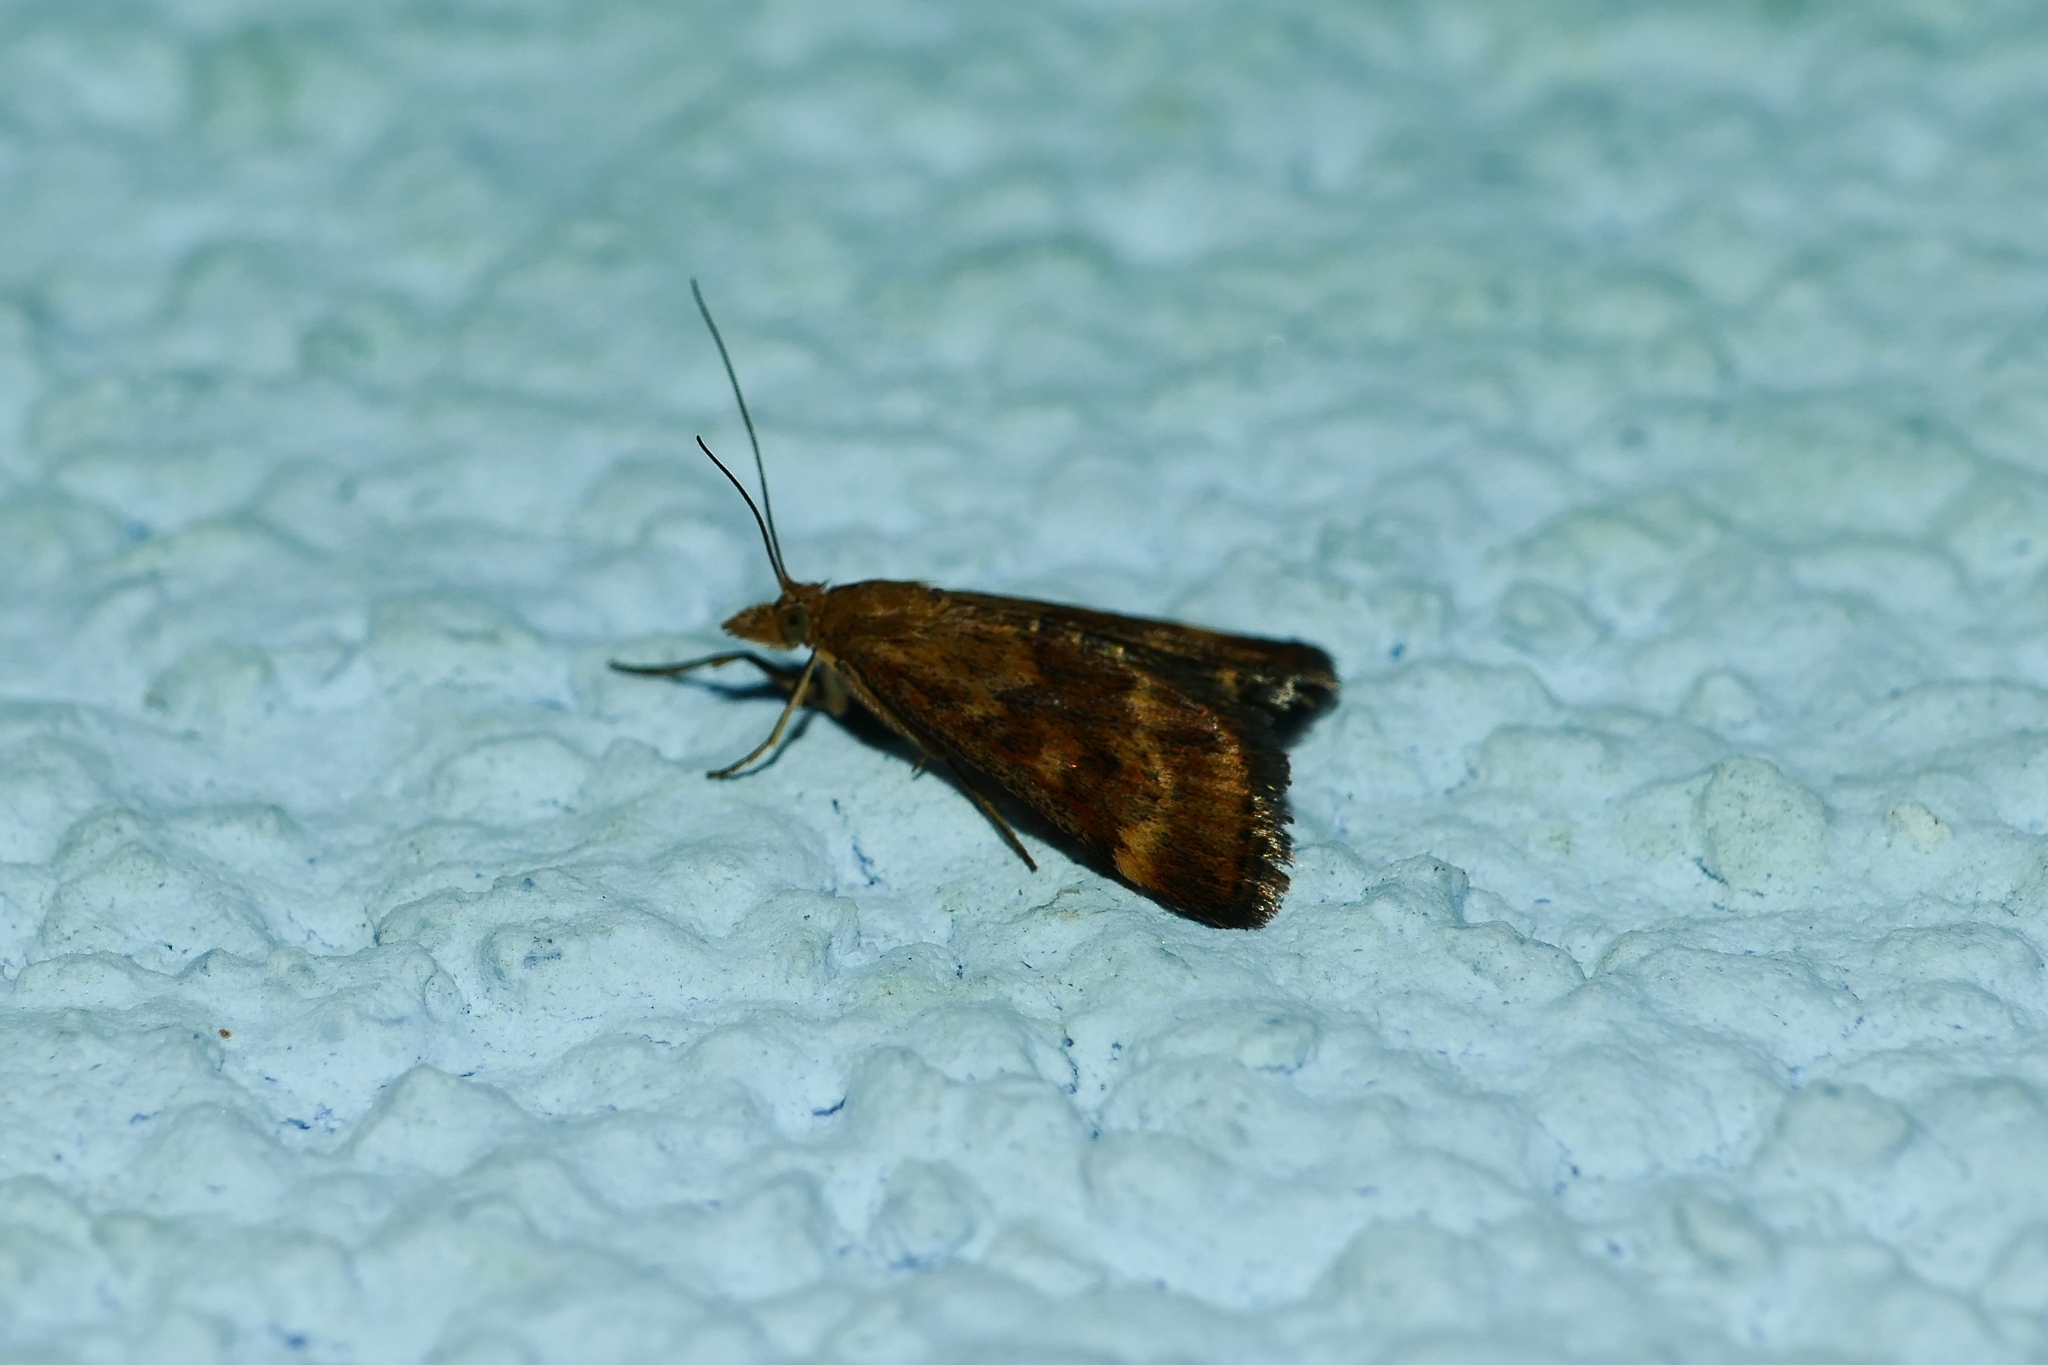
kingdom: Animalia
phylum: Arthropoda
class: Insecta
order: Lepidoptera
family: Crambidae
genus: Pyrausta
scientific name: Pyrausta despicata
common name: Straw-barred pearl
